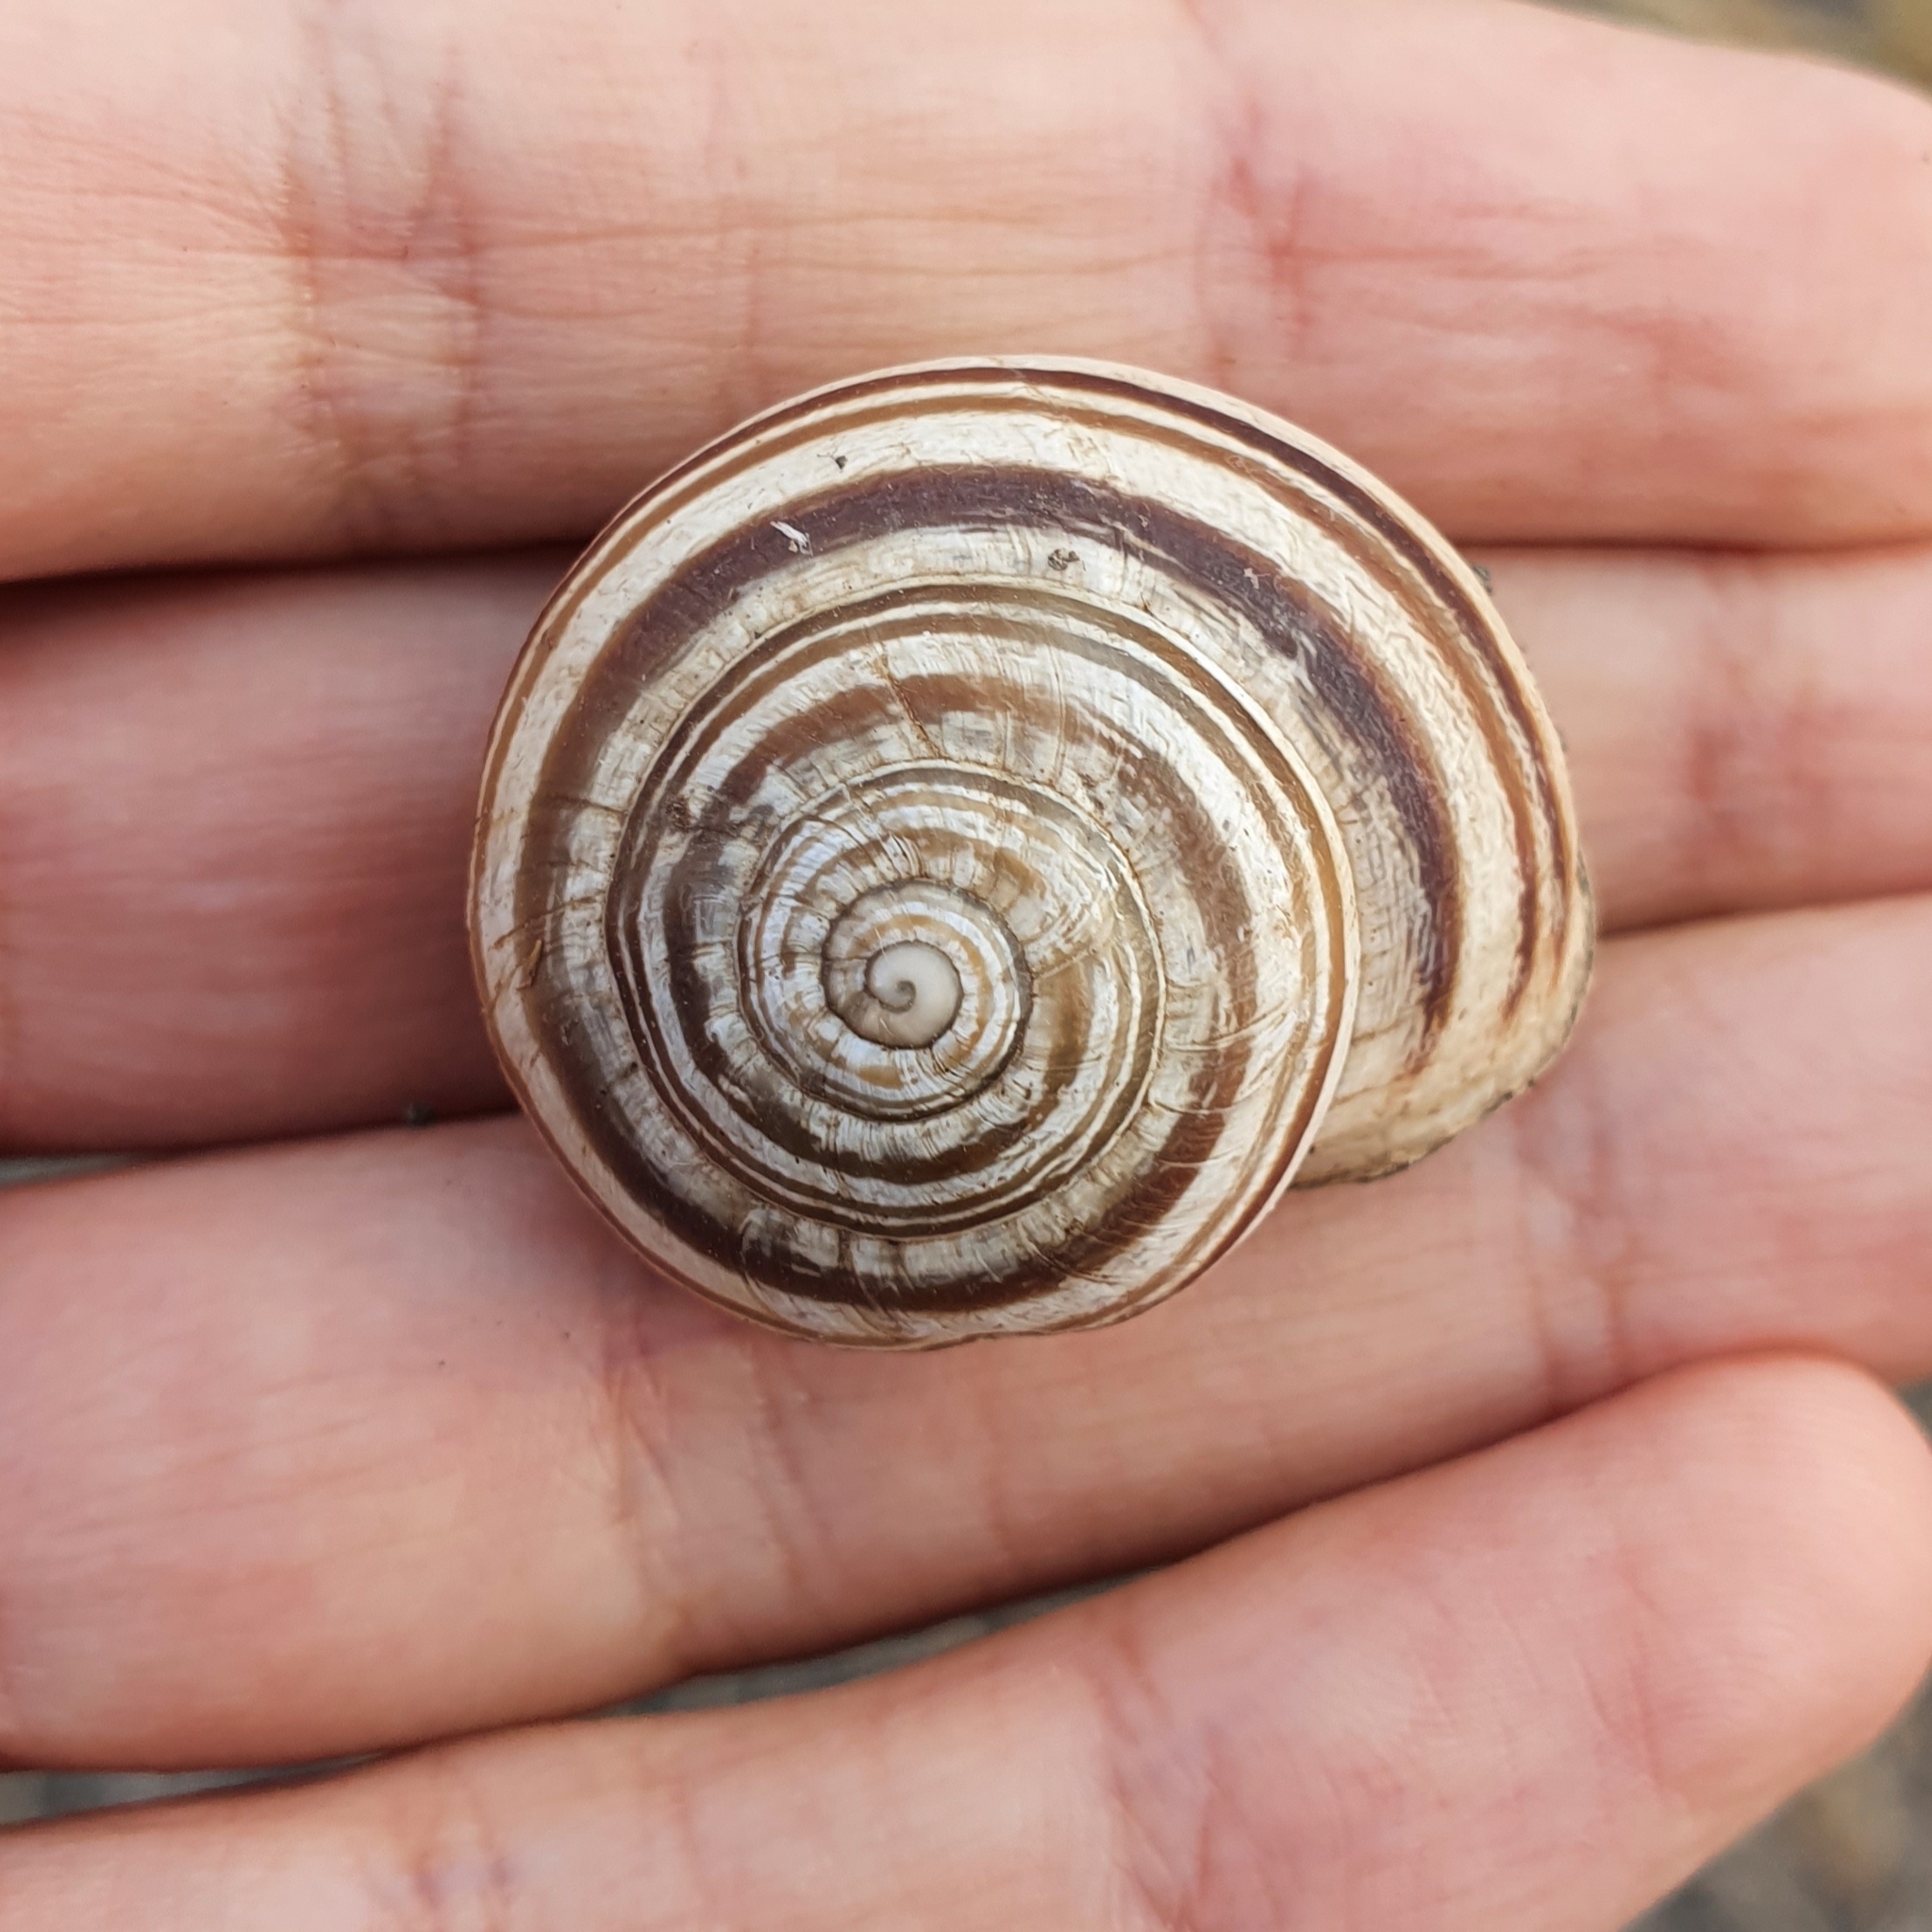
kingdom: Animalia
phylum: Mollusca
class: Gastropoda
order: Stylommatophora
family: Helicidae
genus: Eobania
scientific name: Eobania vermiculata
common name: Chocolateband snail
